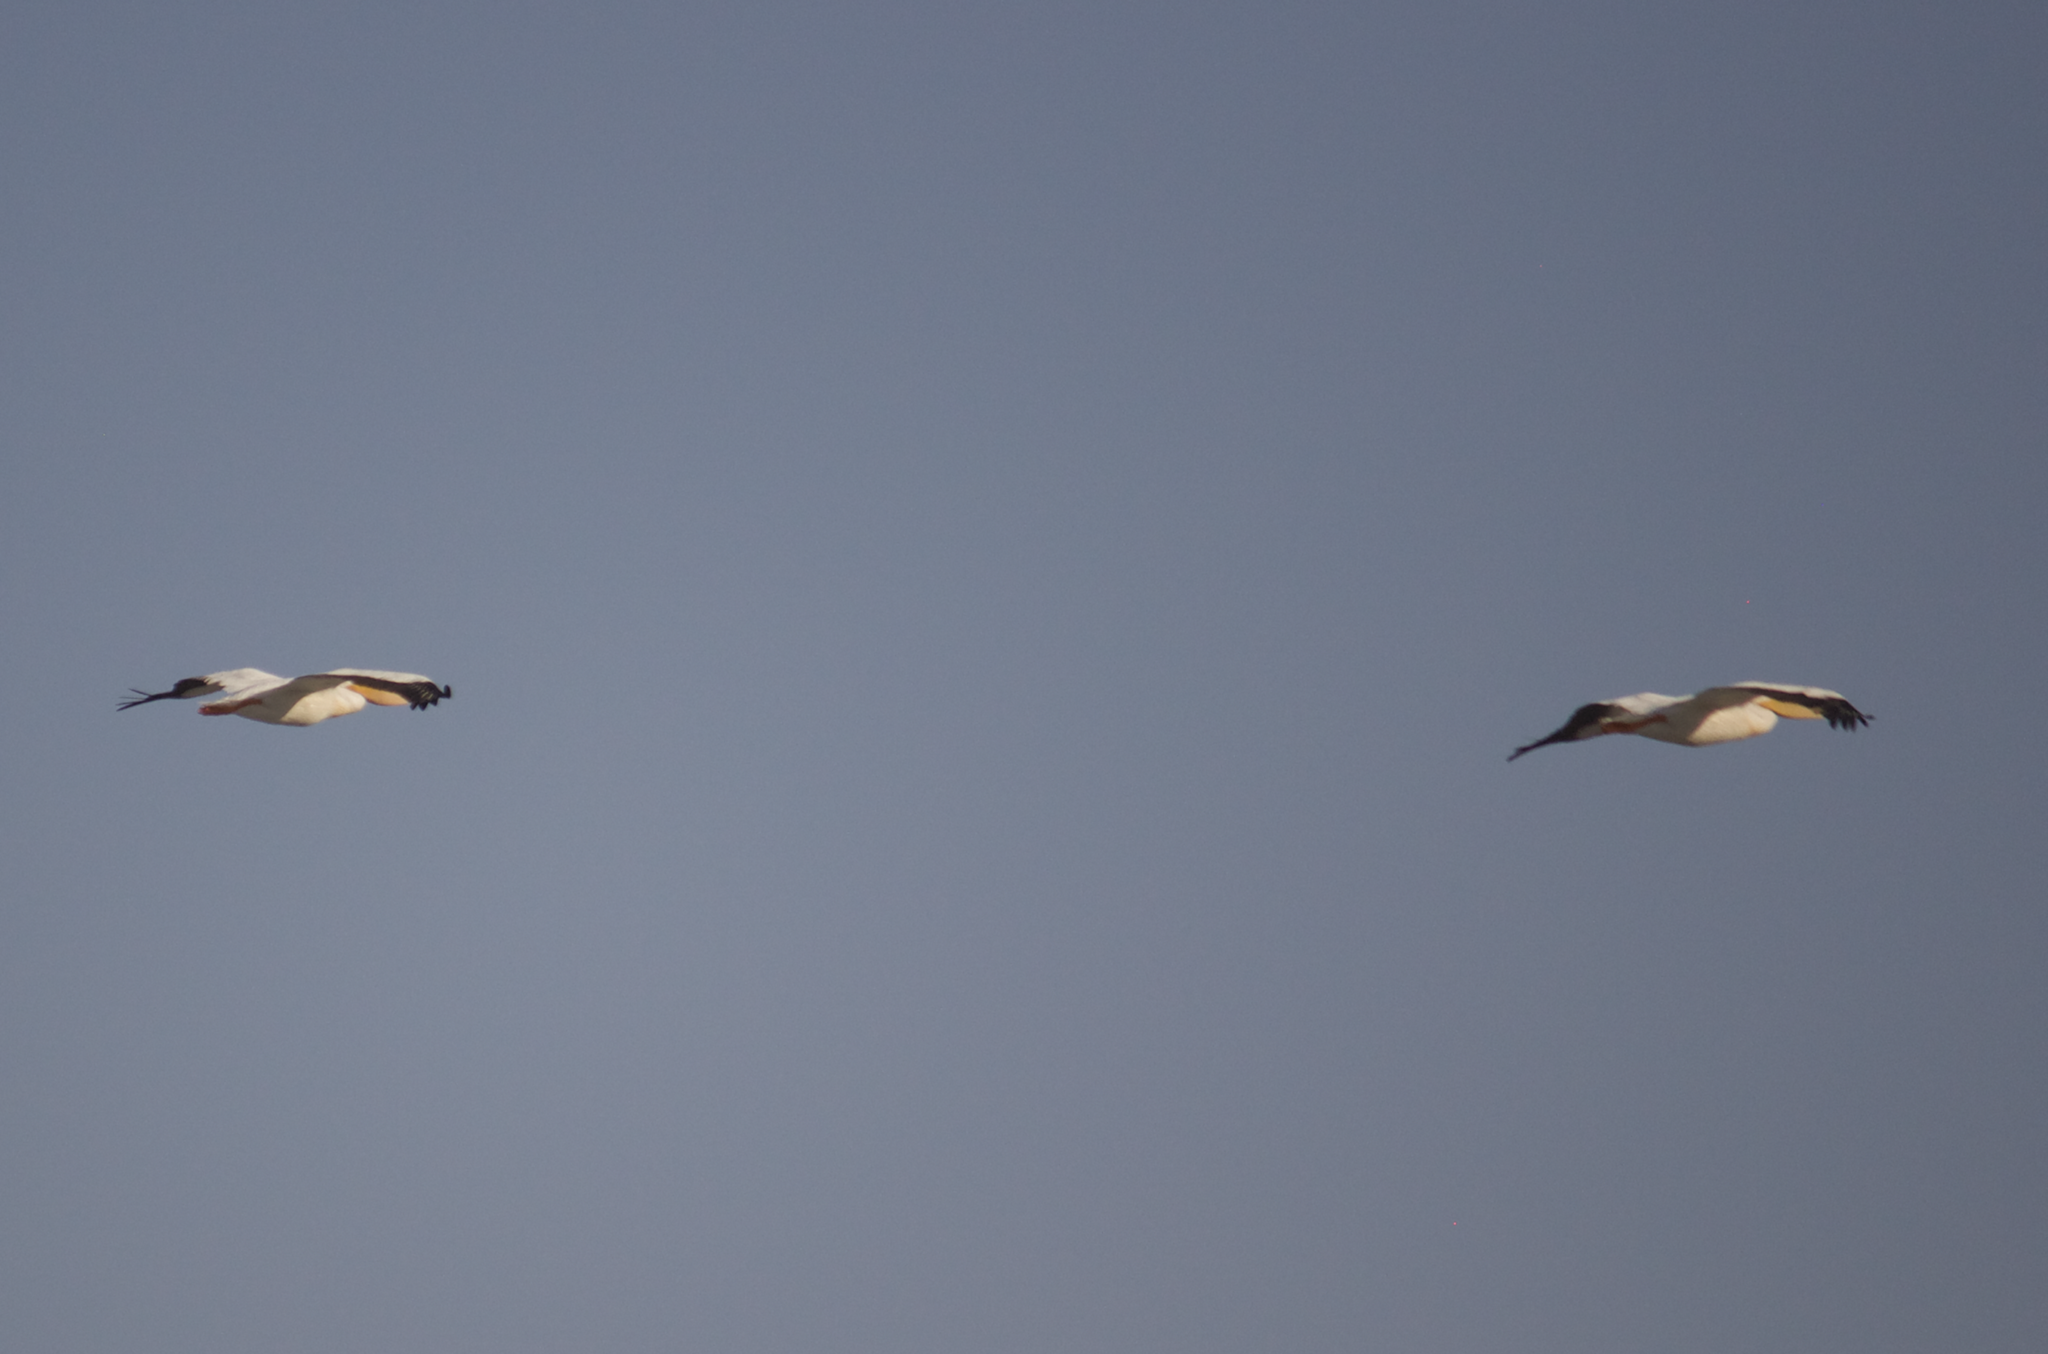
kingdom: Animalia
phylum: Chordata
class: Aves
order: Pelecaniformes
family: Pelecanidae
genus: Pelecanus
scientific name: Pelecanus erythrorhynchos
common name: American white pelican
